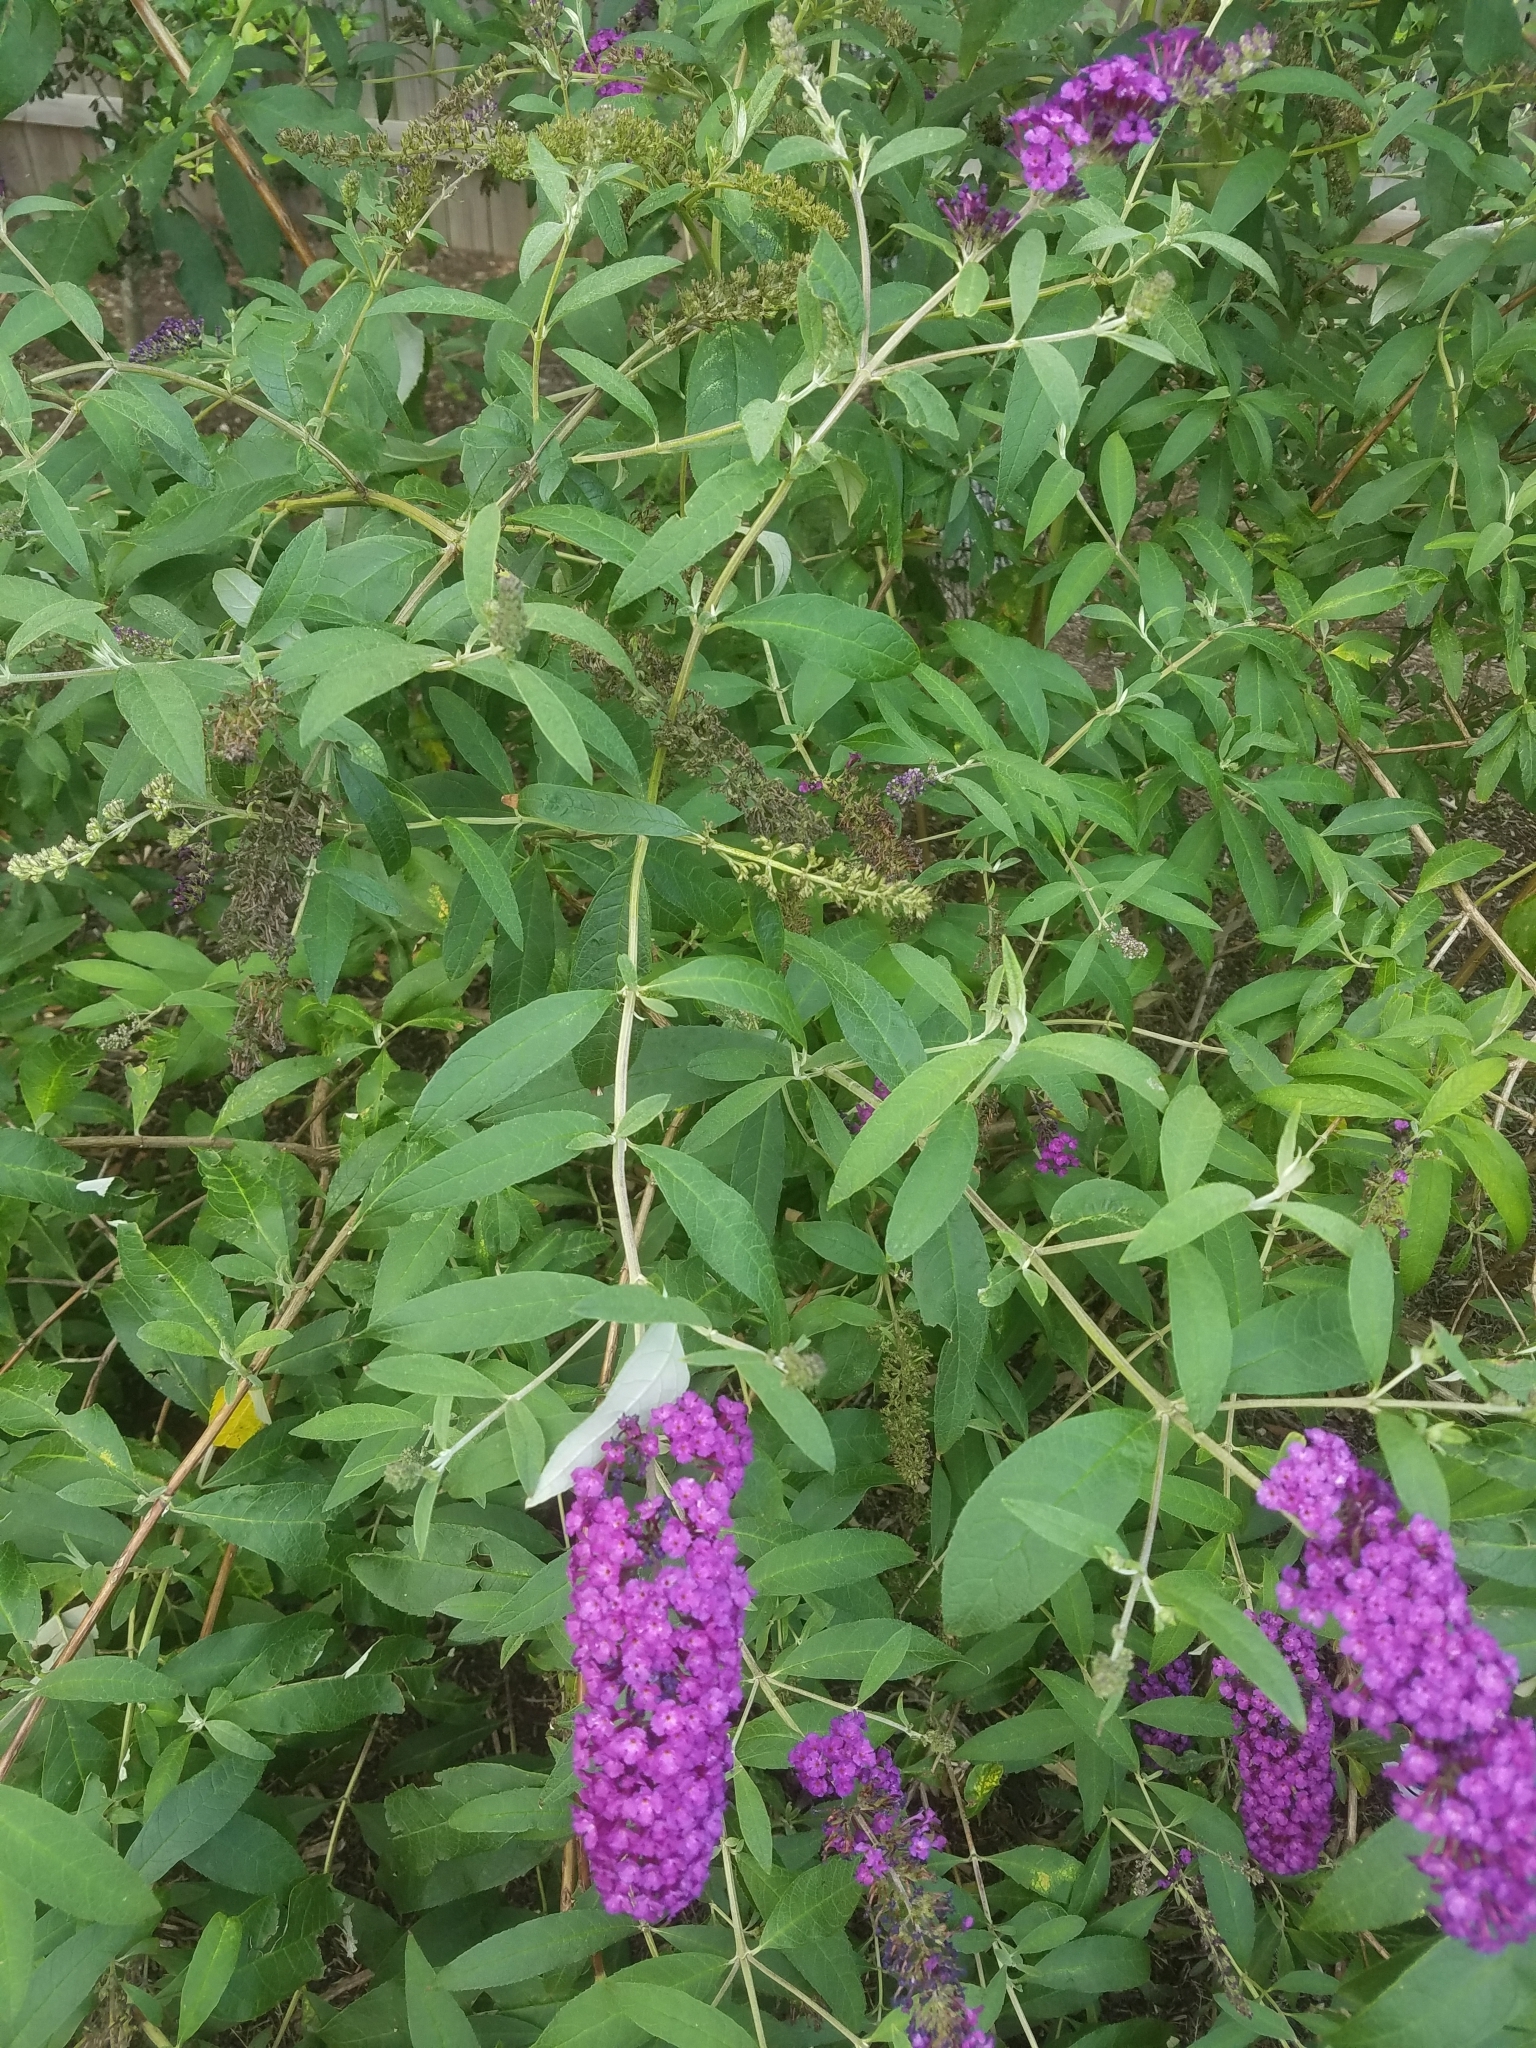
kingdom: Plantae
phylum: Tracheophyta
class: Magnoliopsida
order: Lamiales
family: Scrophulariaceae
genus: Buddleja
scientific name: Buddleja davidii
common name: Butterfly-bush
